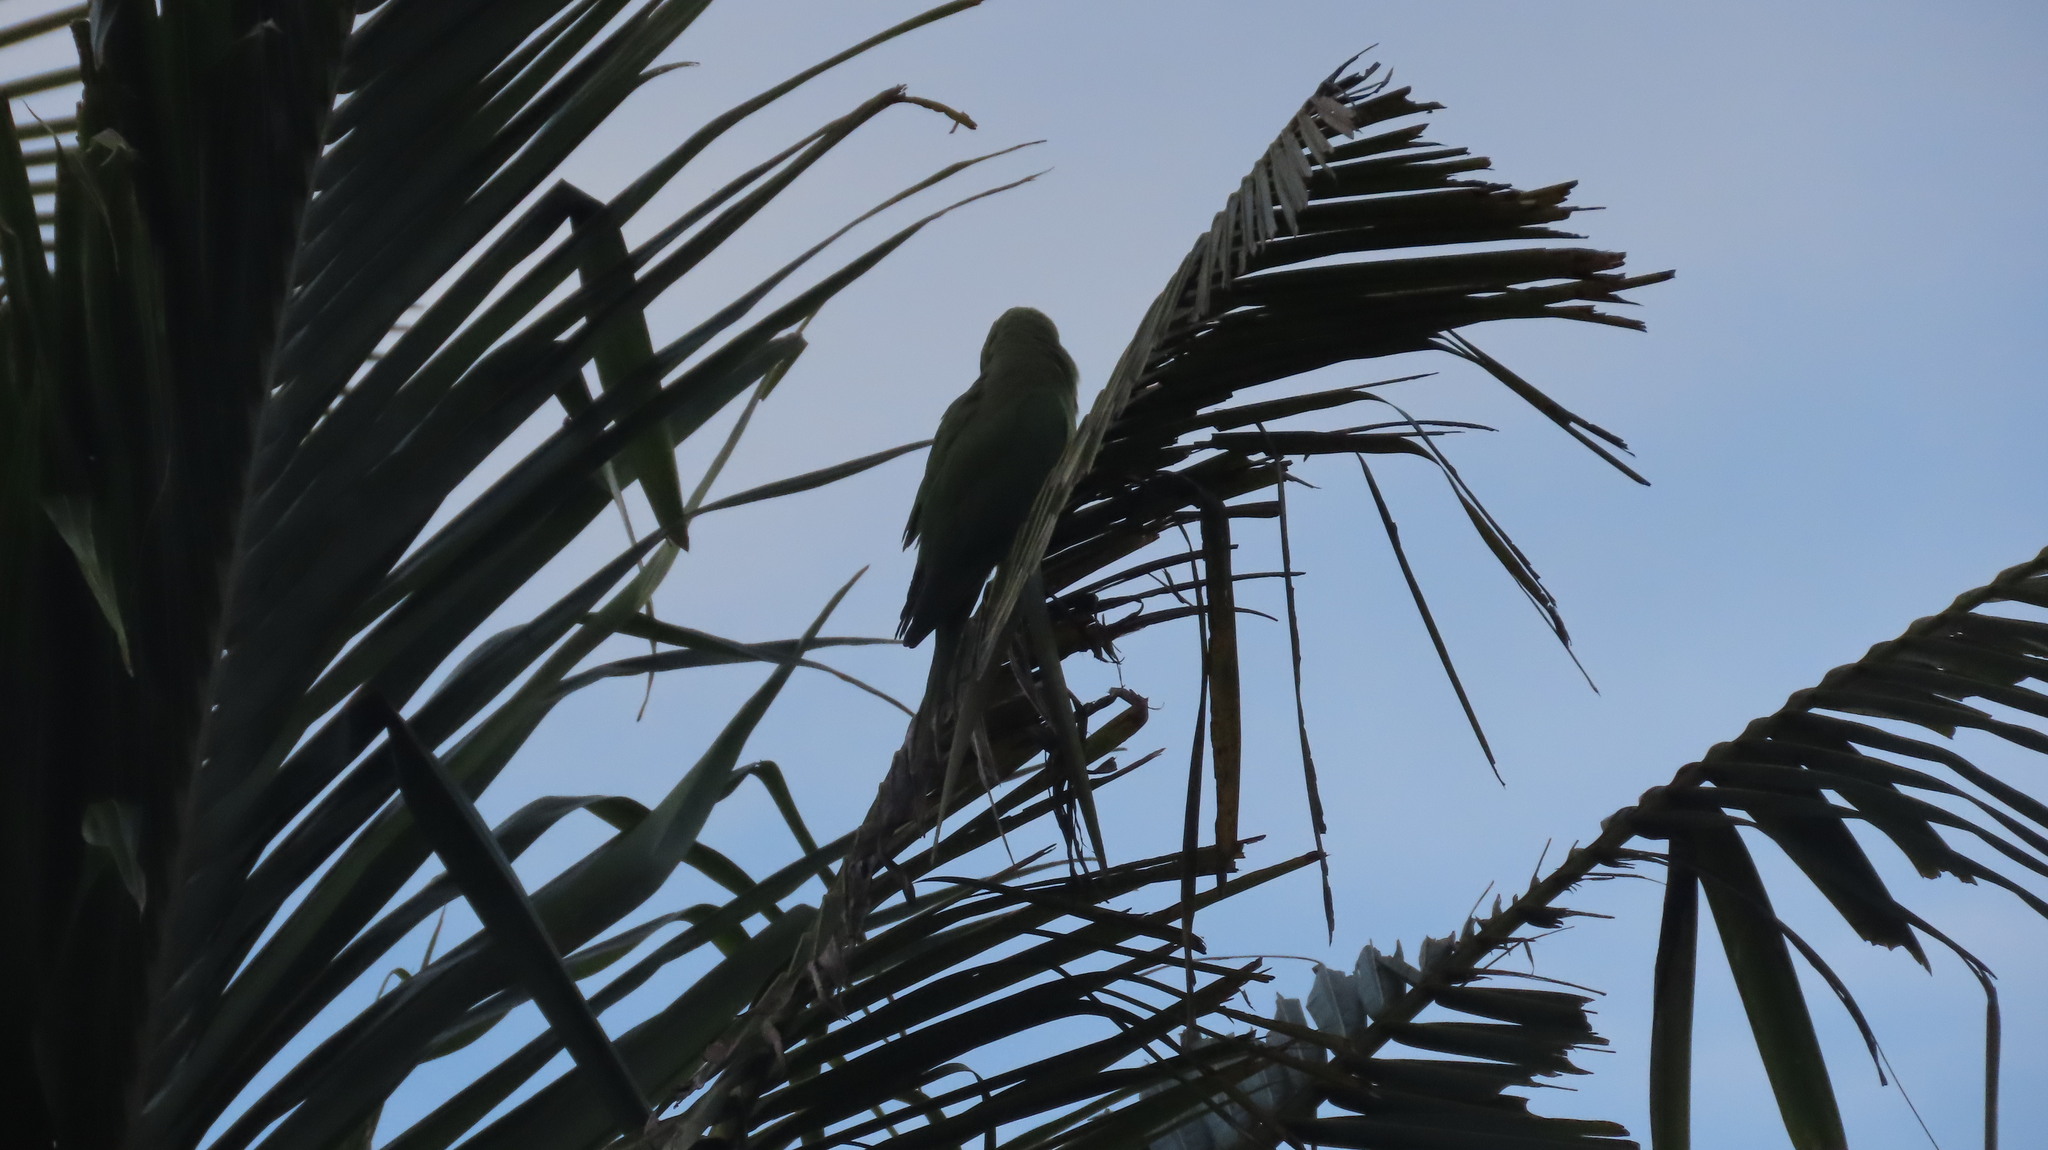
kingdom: Animalia
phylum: Chordata
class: Aves
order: Psittaciformes
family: Psittacidae
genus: Psittacula
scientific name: Psittacula krameri
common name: Rose-ringed parakeet
